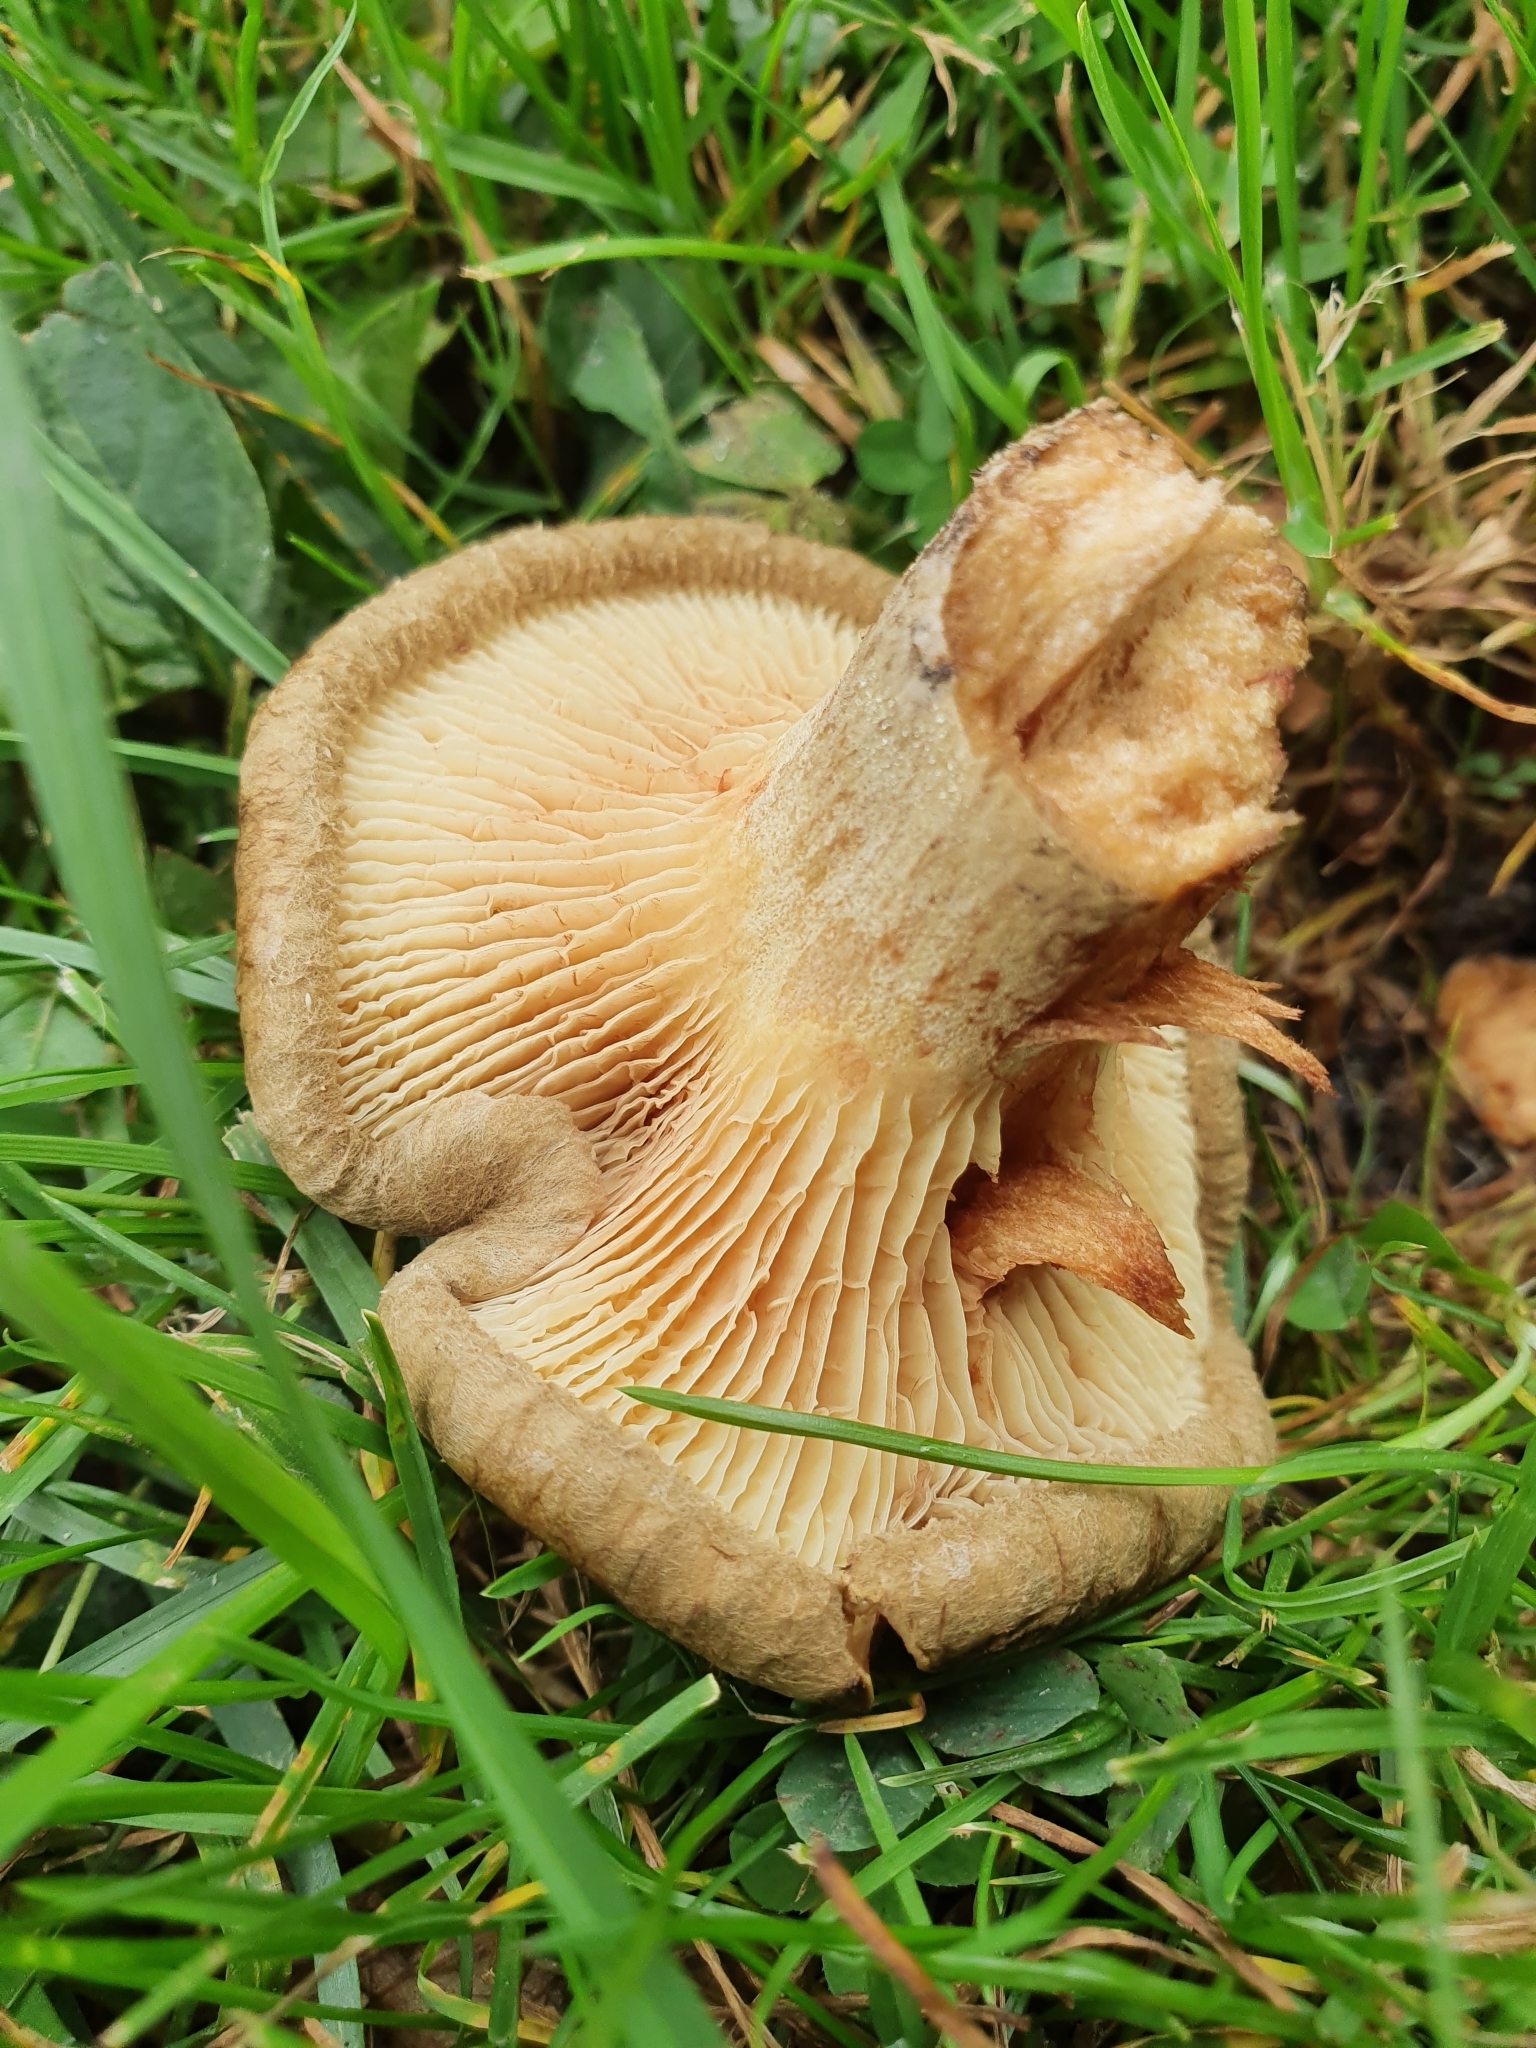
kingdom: Fungi
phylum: Basidiomycota
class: Agaricomycetes
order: Boletales
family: Paxillaceae
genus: Paxillus
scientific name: Paxillus involutus
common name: Brown roll rim
